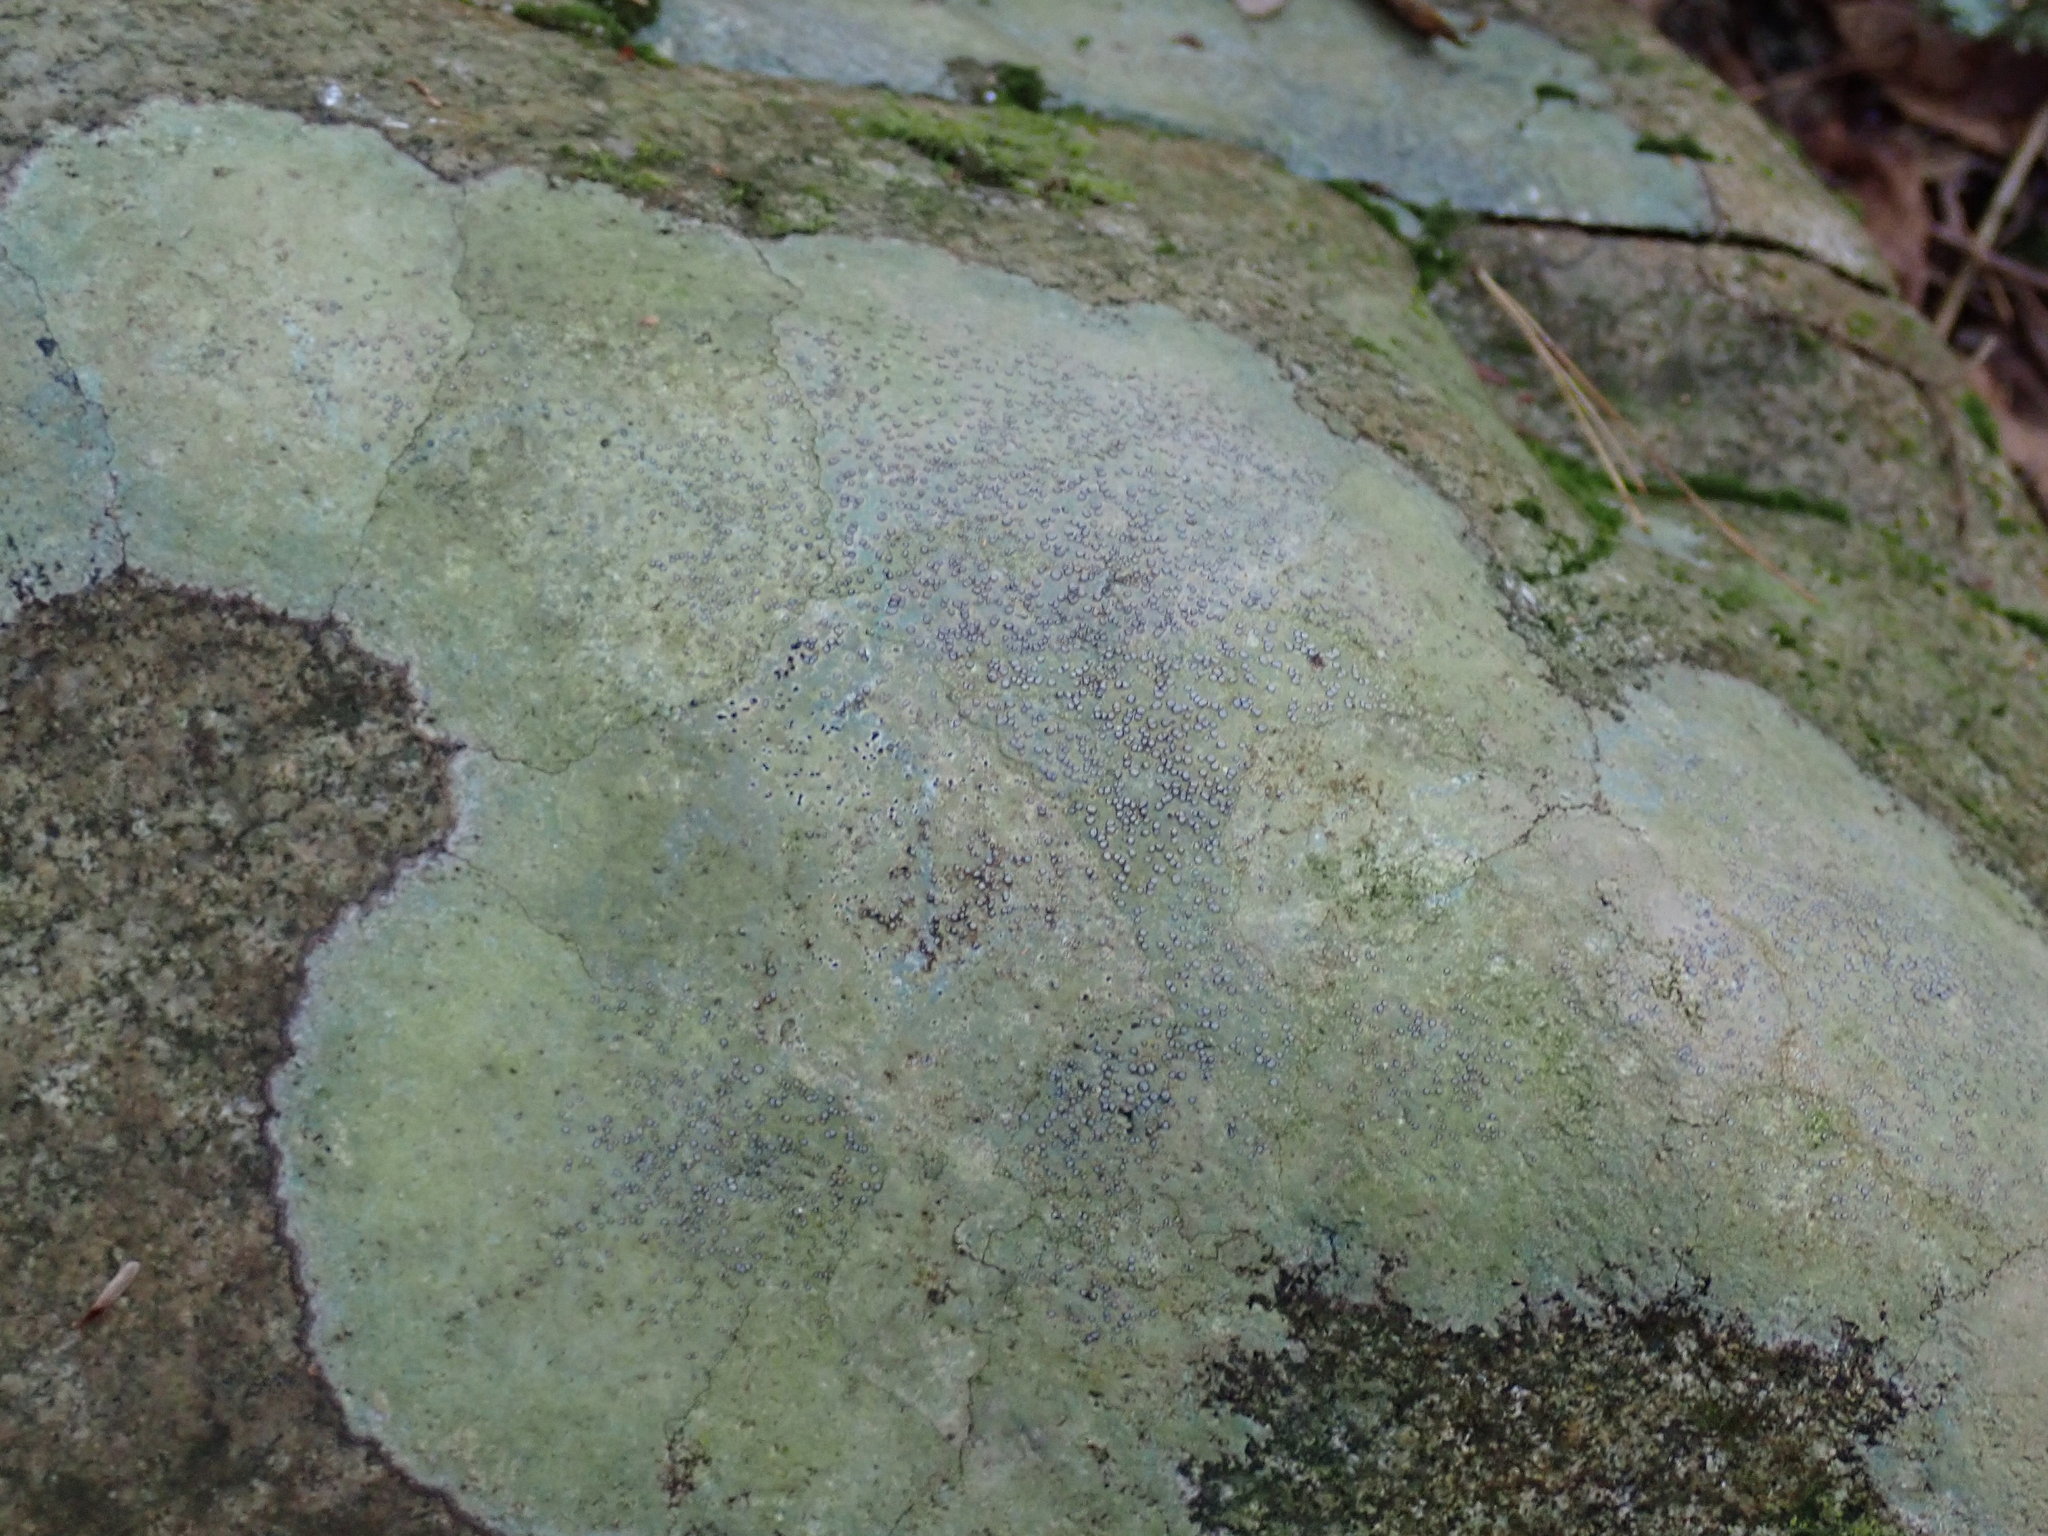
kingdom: Fungi
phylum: Ascomycota
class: Lecanoromycetes
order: Lecideales
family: Lecideaceae
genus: Porpidia
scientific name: Porpidia albocaerulescens
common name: Smokey-eyed boulder lichen
